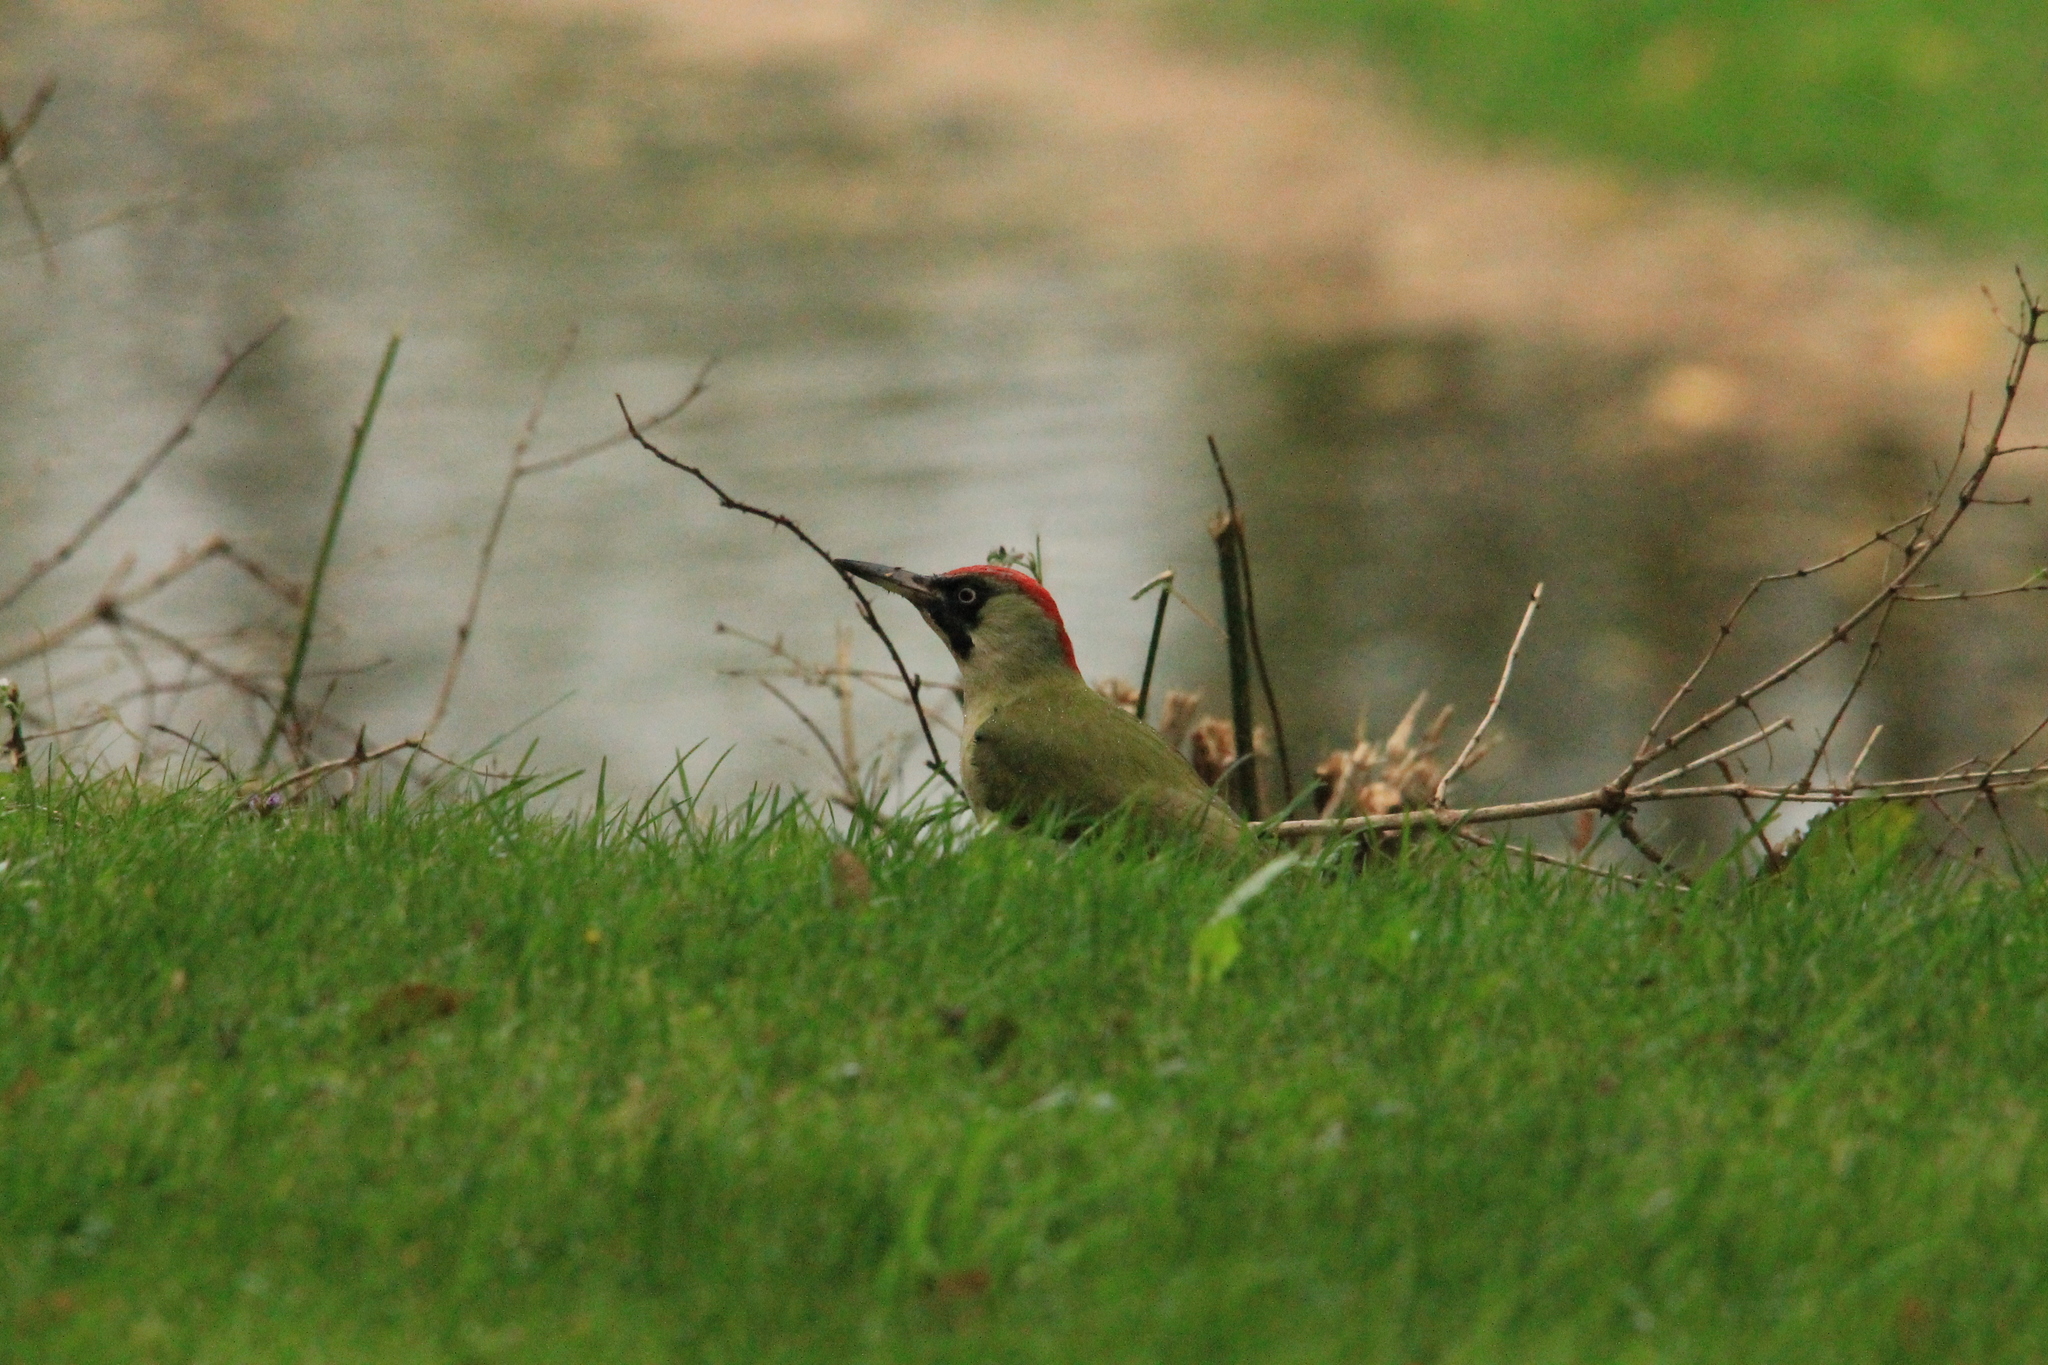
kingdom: Animalia
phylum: Chordata
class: Aves
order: Piciformes
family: Picidae
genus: Picus
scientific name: Picus viridis
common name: European green woodpecker
